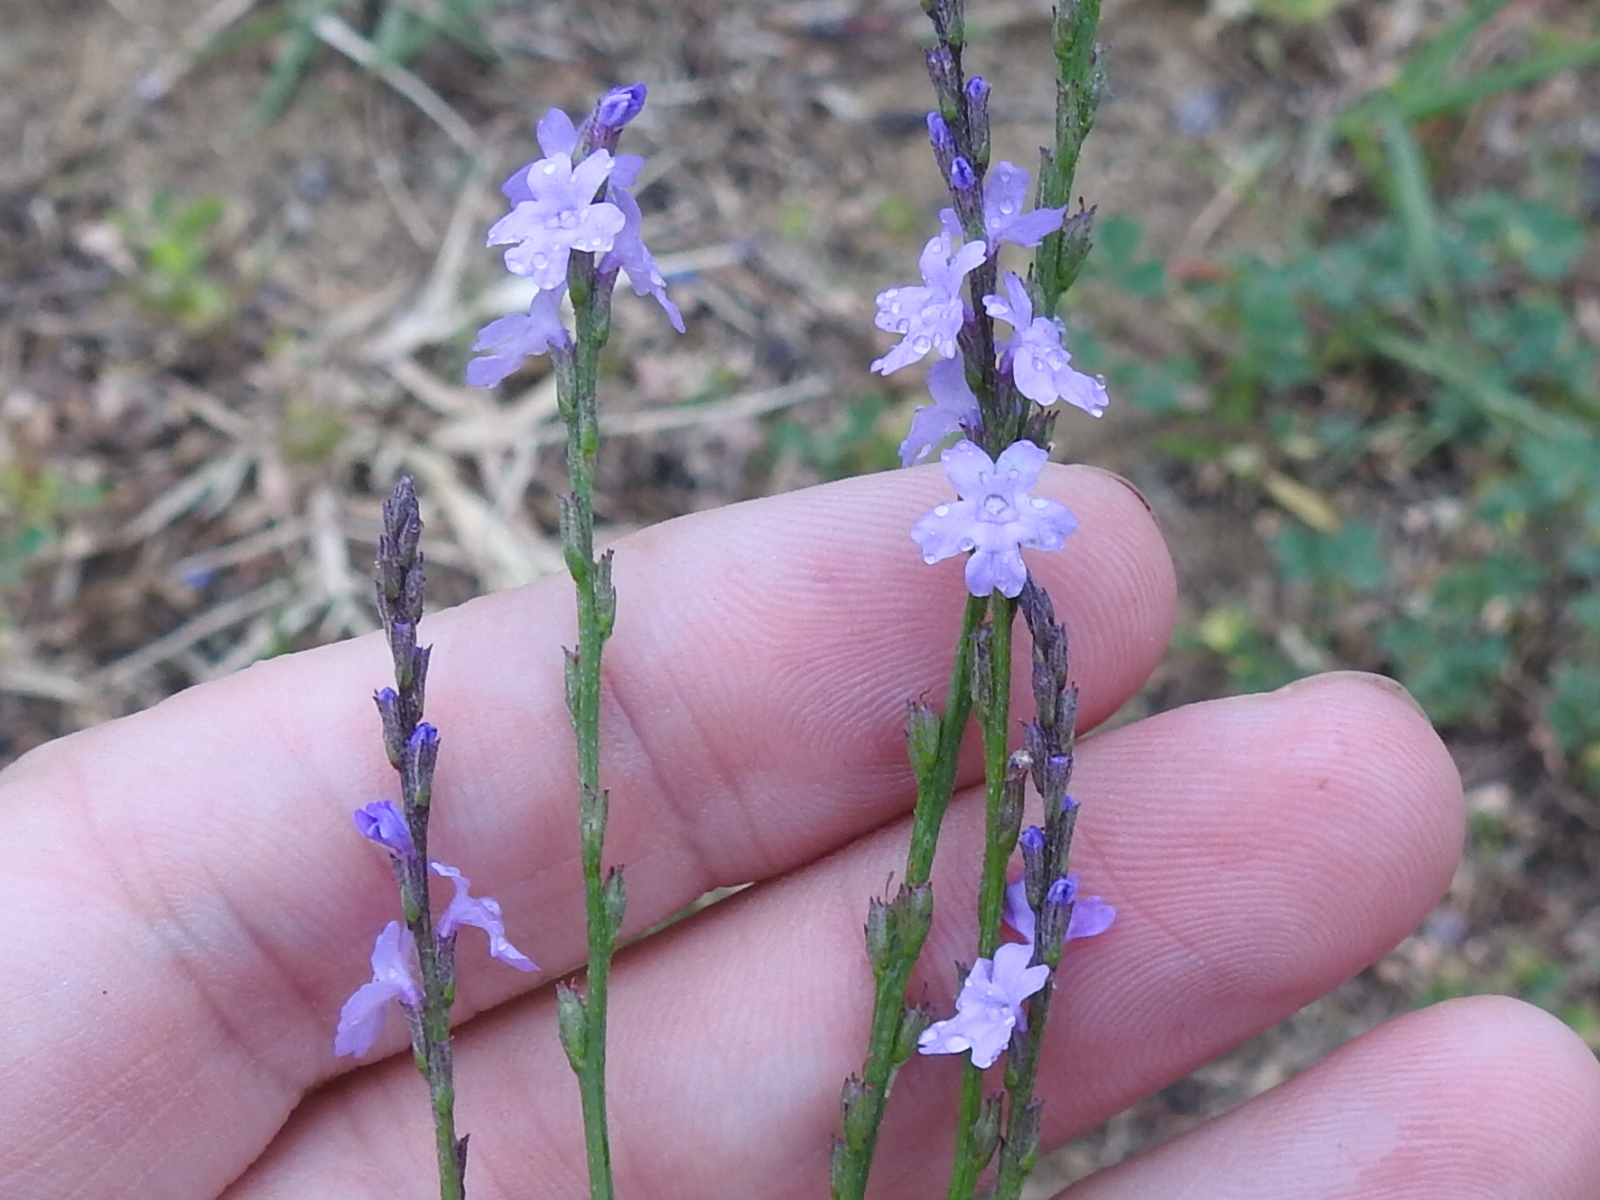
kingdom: Plantae
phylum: Tracheophyta
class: Magnoliopsida
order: Lamiales
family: Verbenaceae
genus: Verbena
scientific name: Verbena halei
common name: Texas vervain
